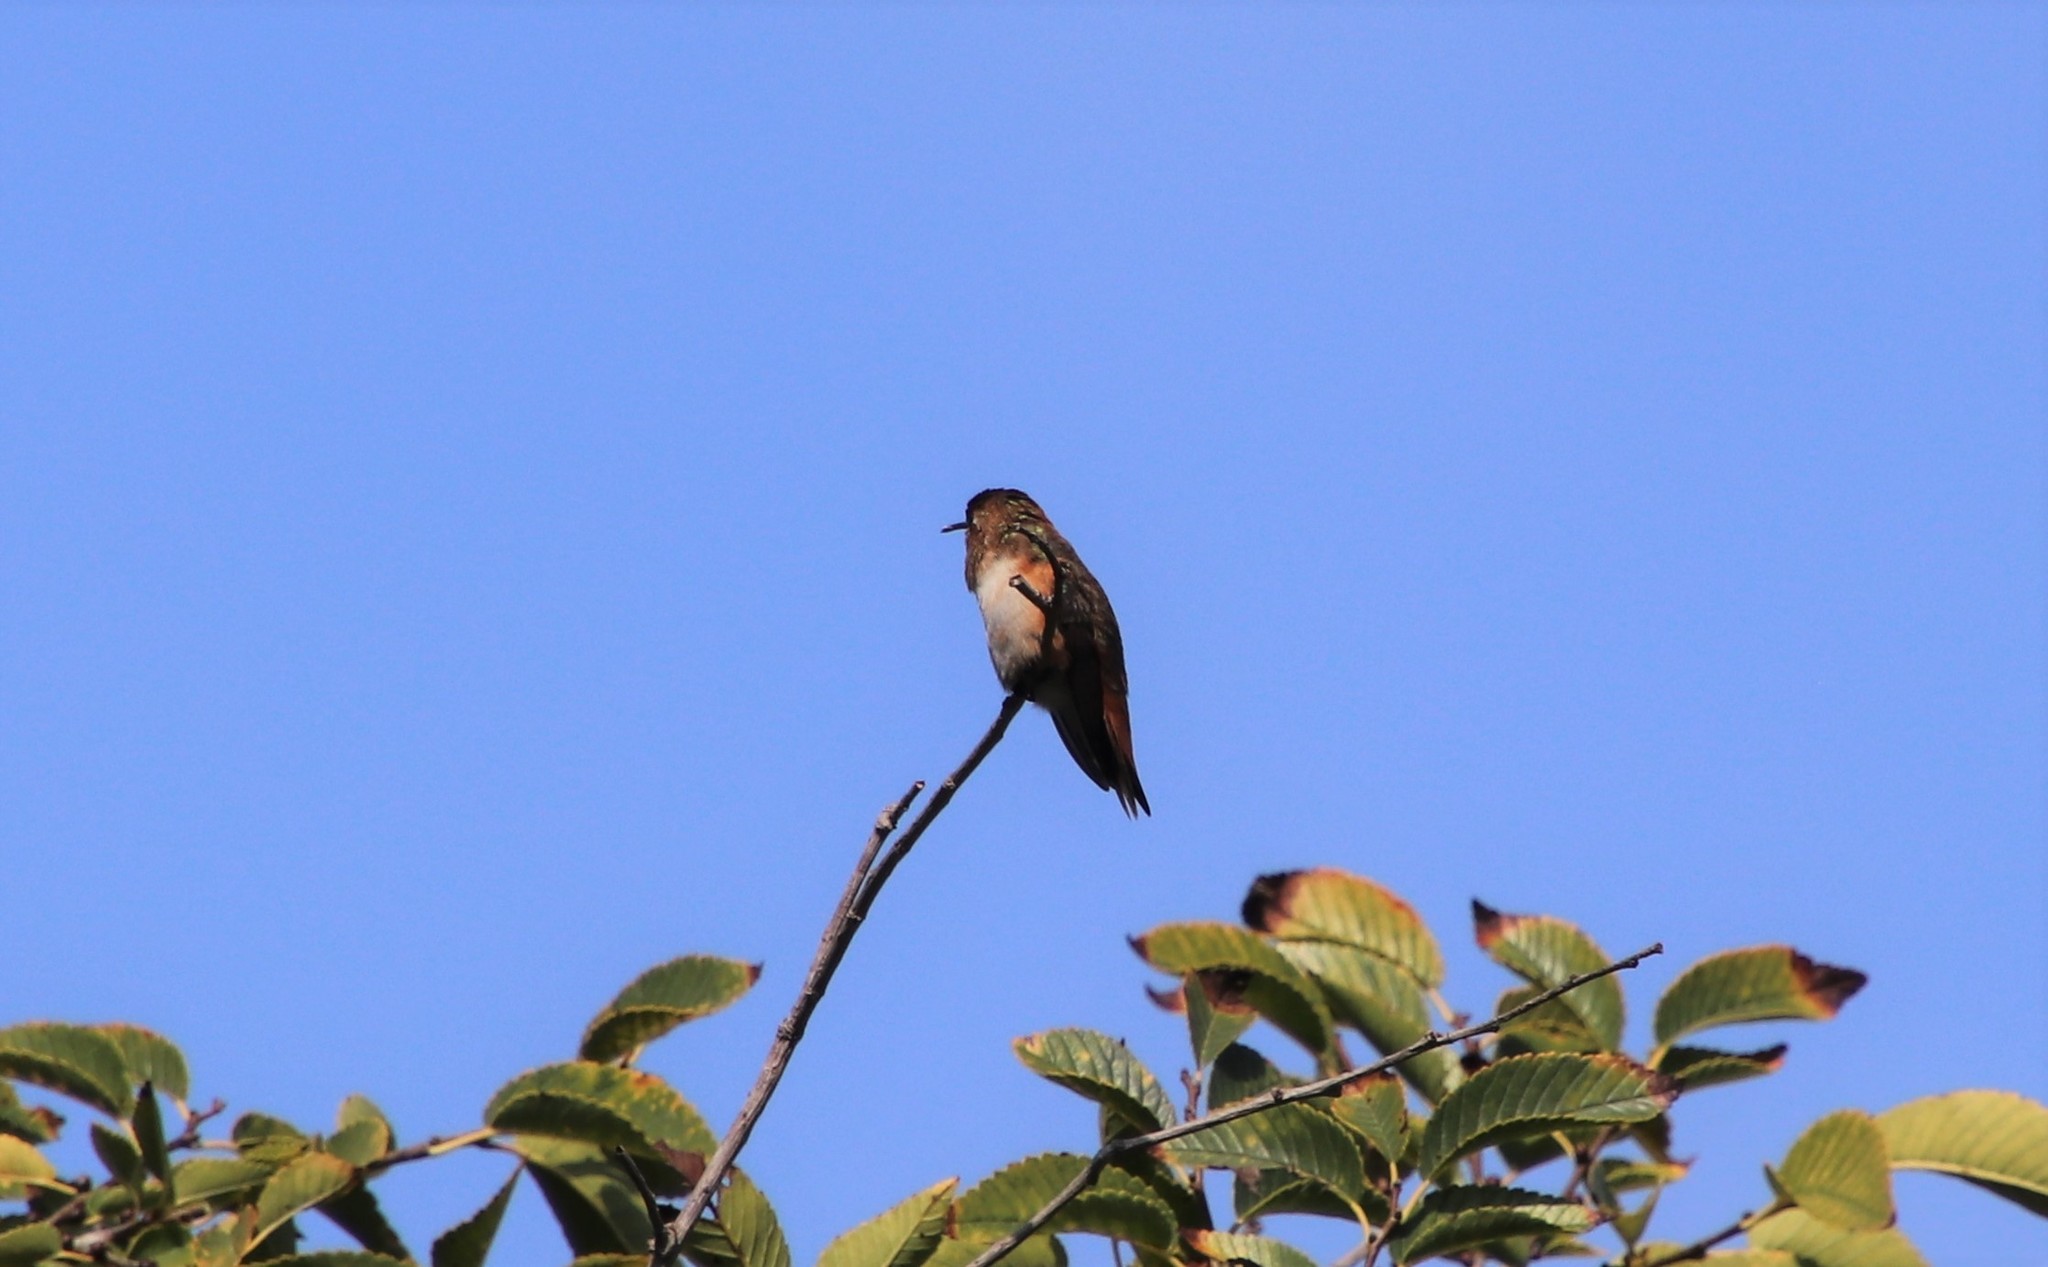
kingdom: Animalia
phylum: Chordata
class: Aves
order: Apodiformes
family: Trochilidae
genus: Selasphorus
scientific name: Selasphorus
